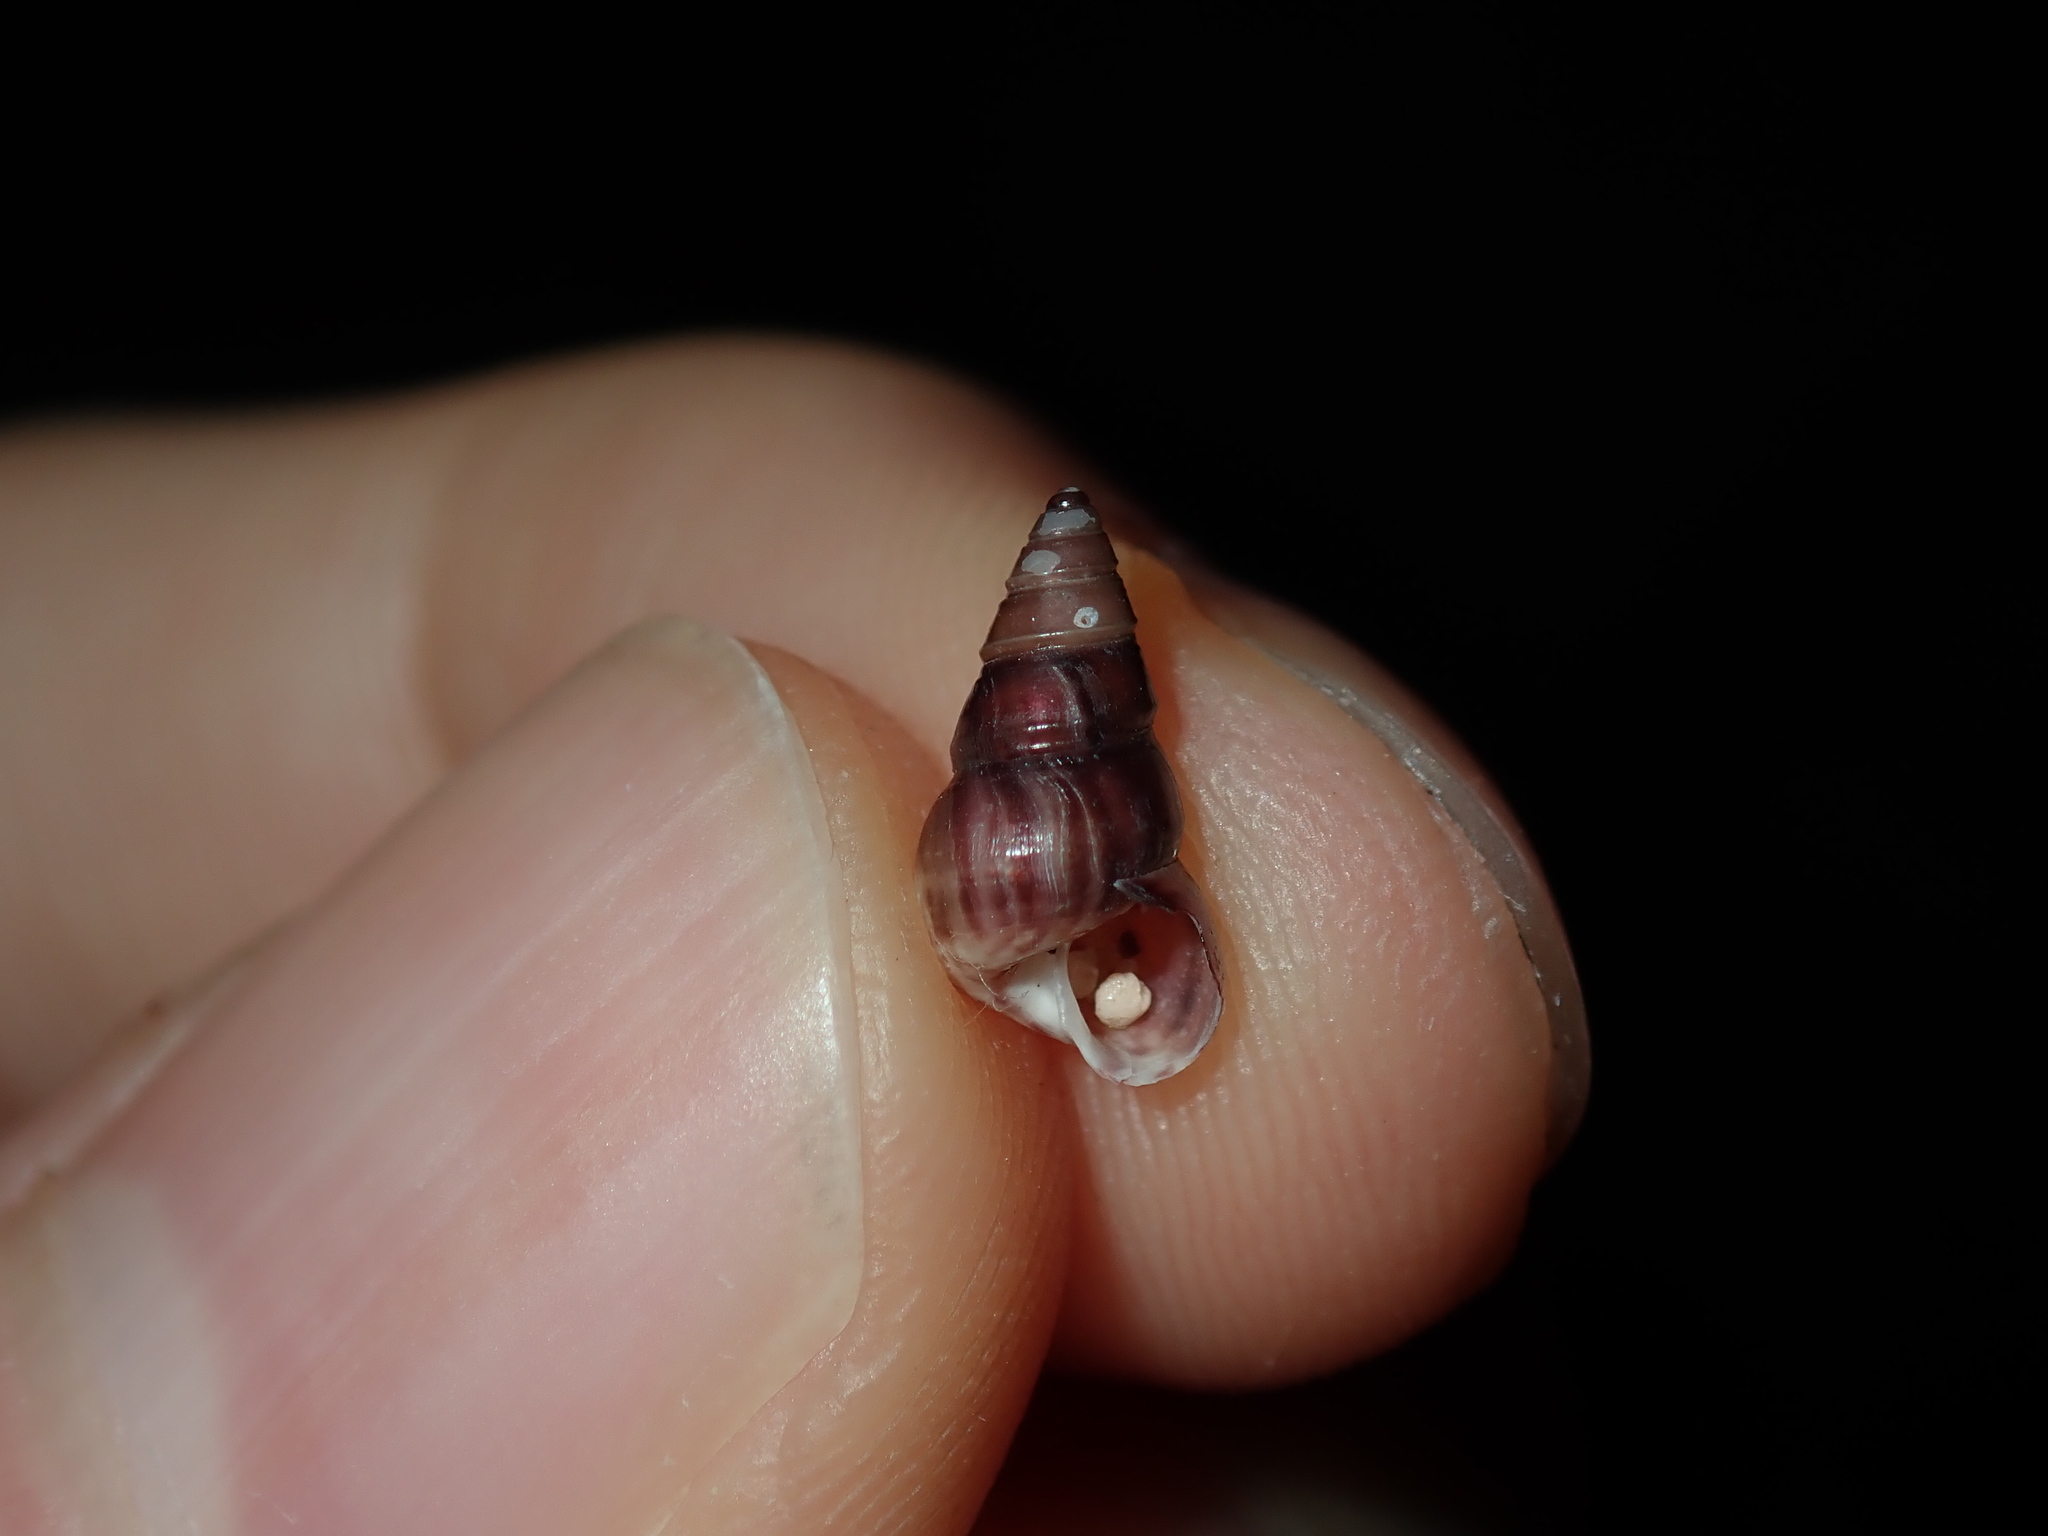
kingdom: Animalia
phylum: Mollusca
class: Gastropoda
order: Trochida
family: Trochidae
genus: Leiopyrga
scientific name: Leiopyrga lineolaris
